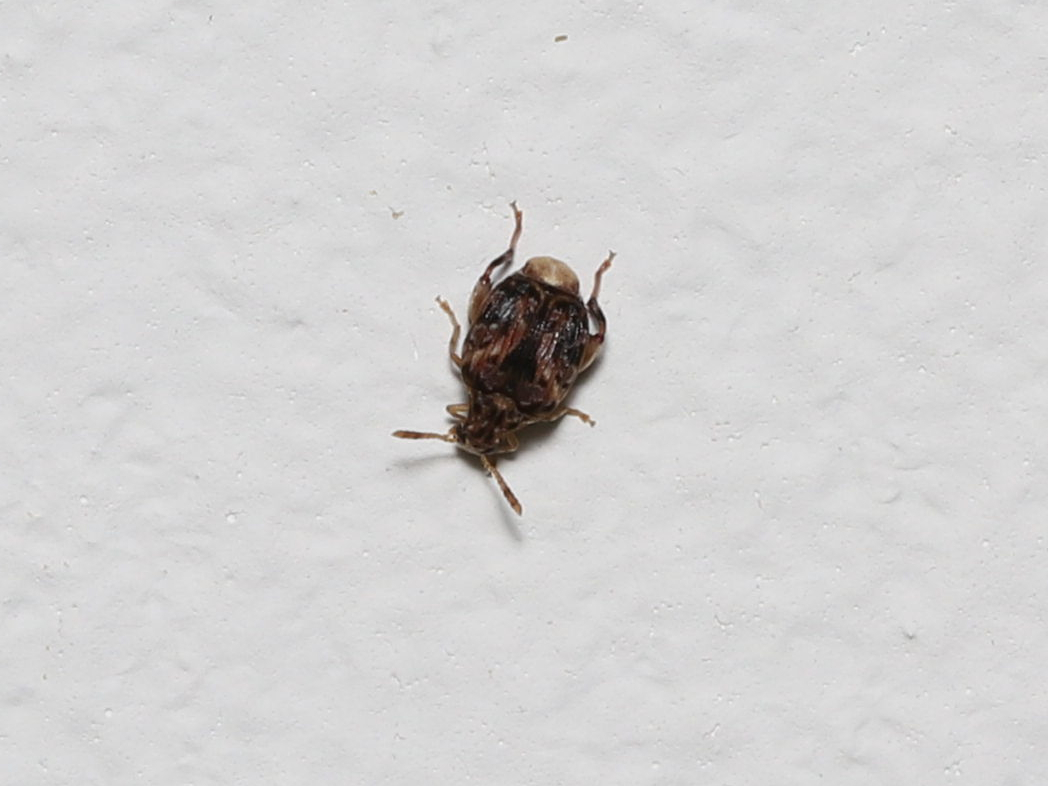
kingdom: Animalia
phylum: Arthropoda
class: Insecta
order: Coleoptera
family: Chrysomelidae
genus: Gibbobruchus
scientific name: Gibbobruchus mimus
